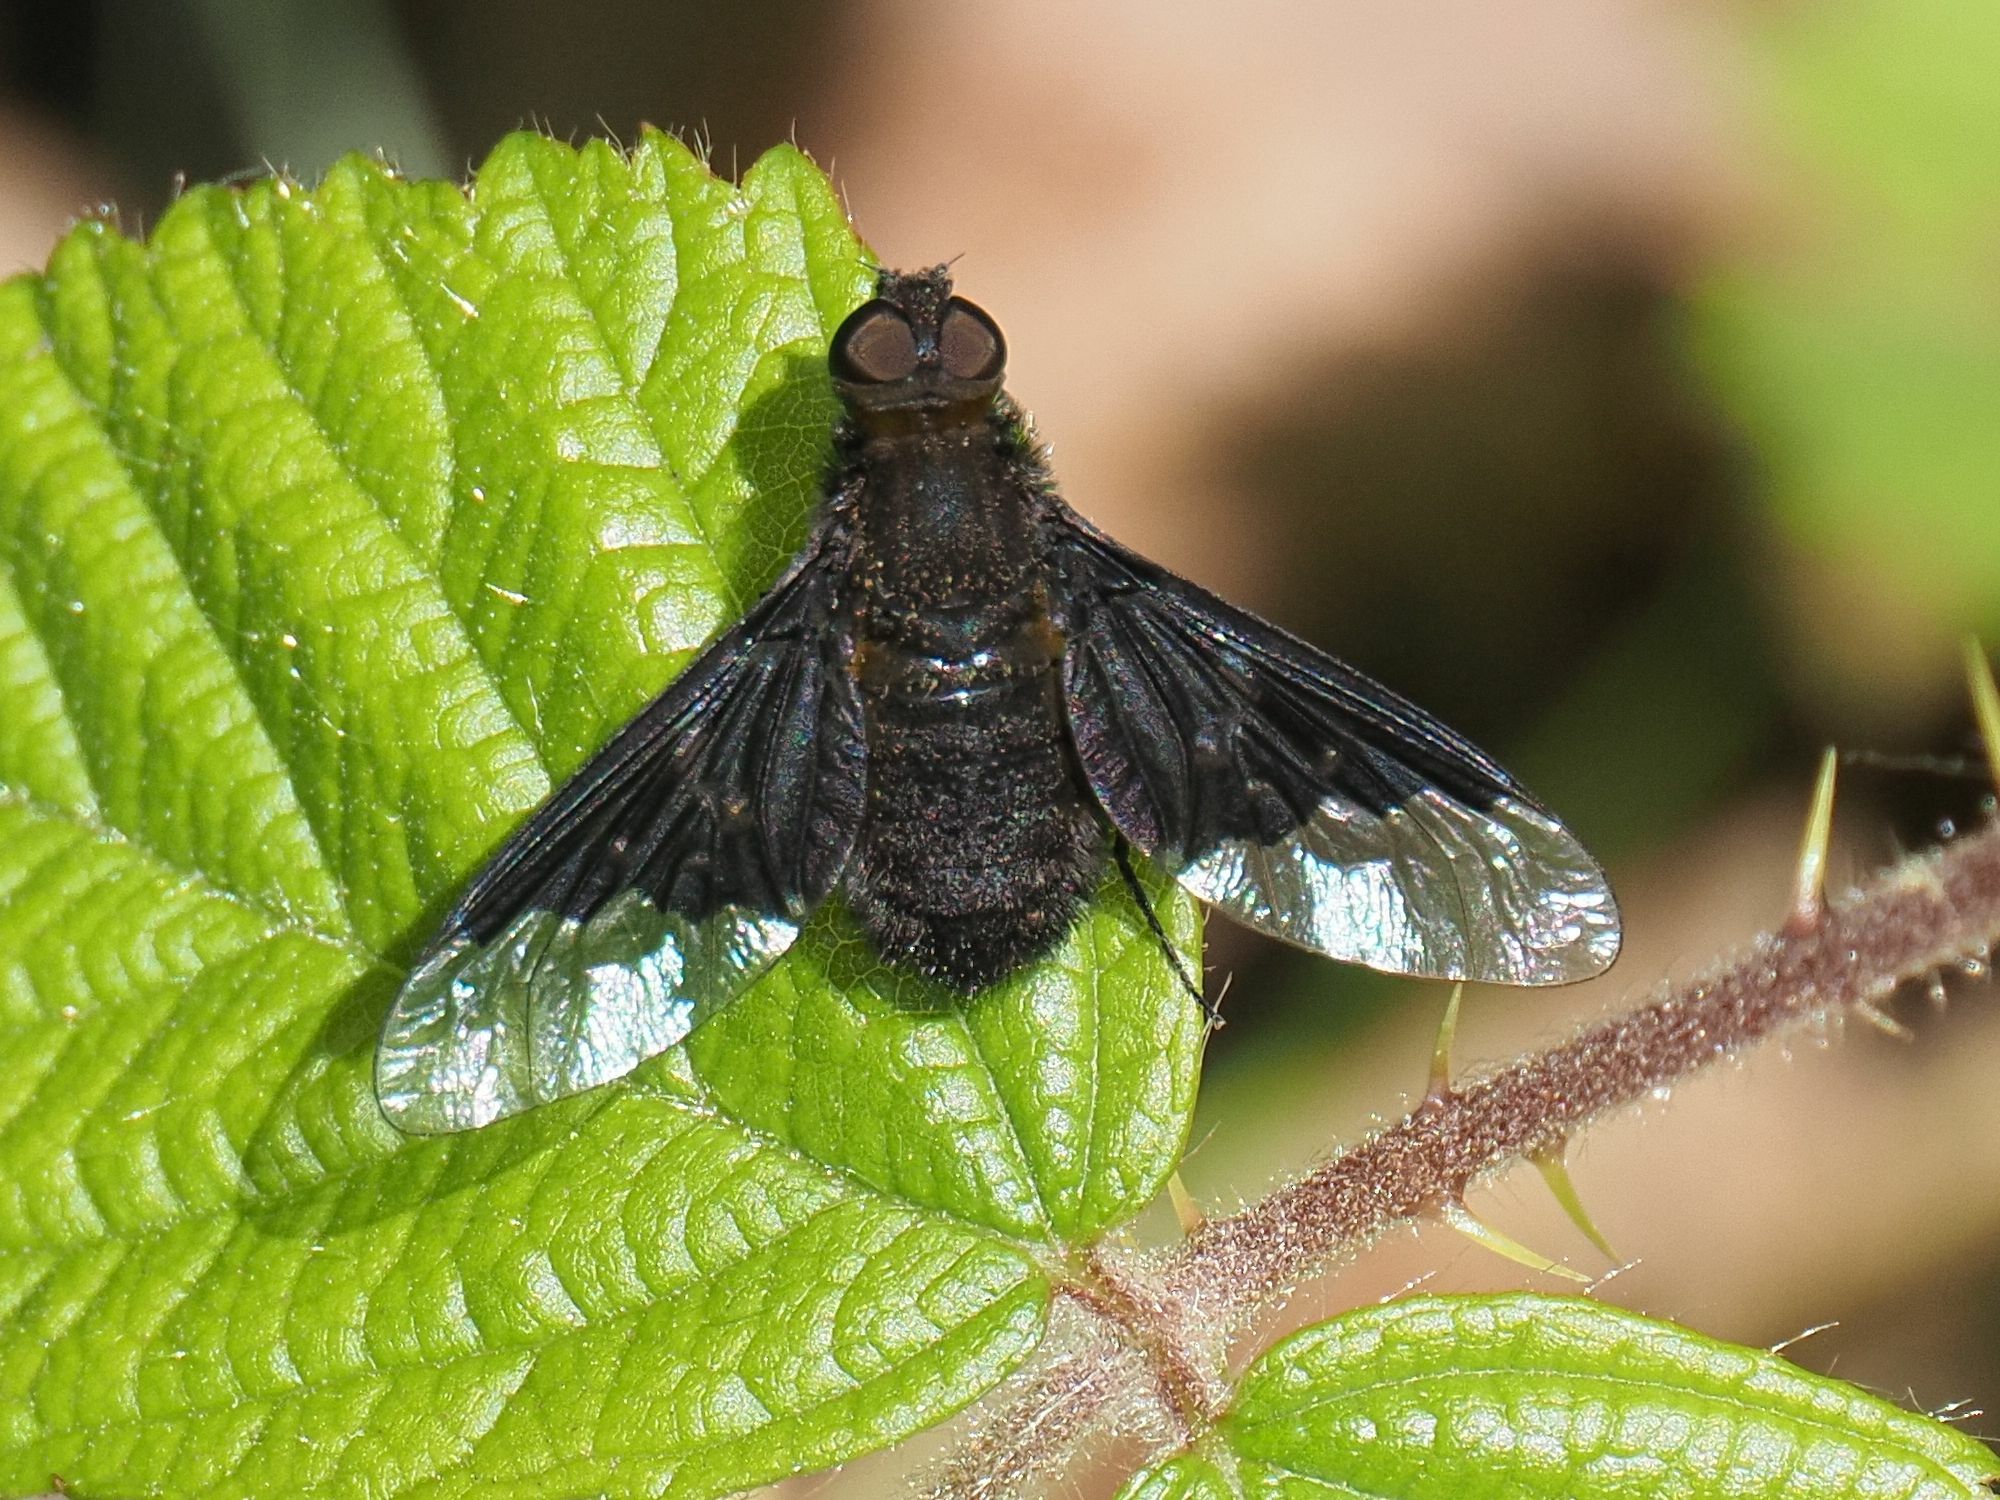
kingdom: Animalia
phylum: Arthropoda
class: Insecta
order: Diptera
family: Bombyliidae
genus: Hemipenthes
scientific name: Hemipenthes morio
